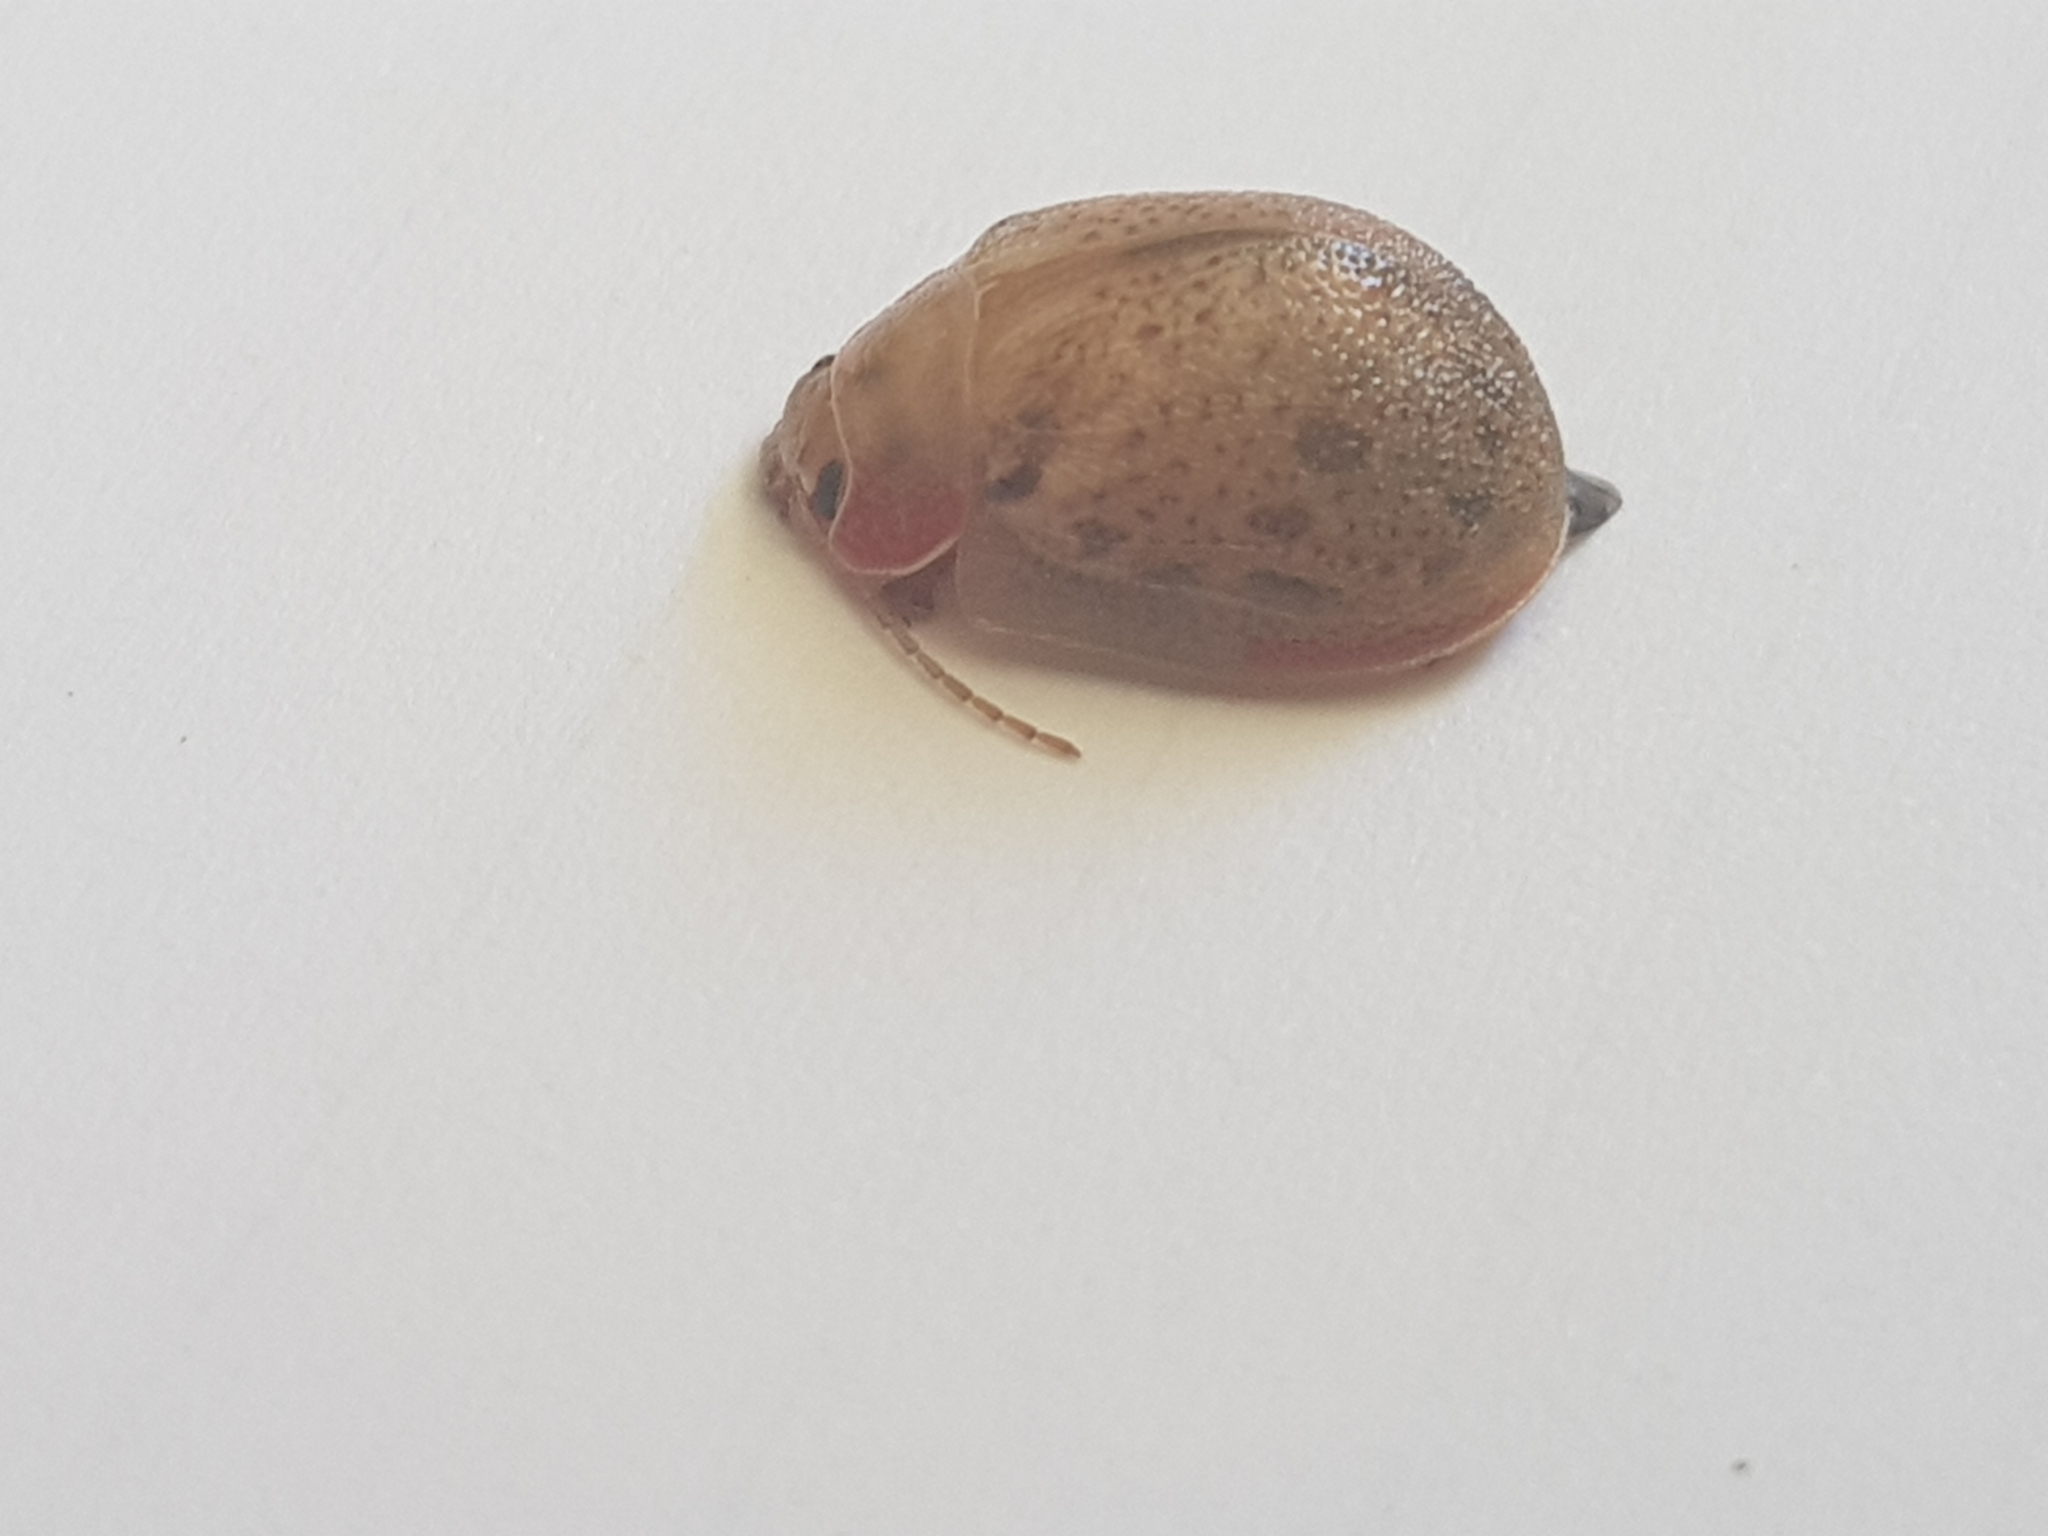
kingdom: Animalia
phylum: Arthropoda
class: Insecta
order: Coleoptera
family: Chrysomelidae
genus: Paropsis
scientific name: Paropsis charybdis
